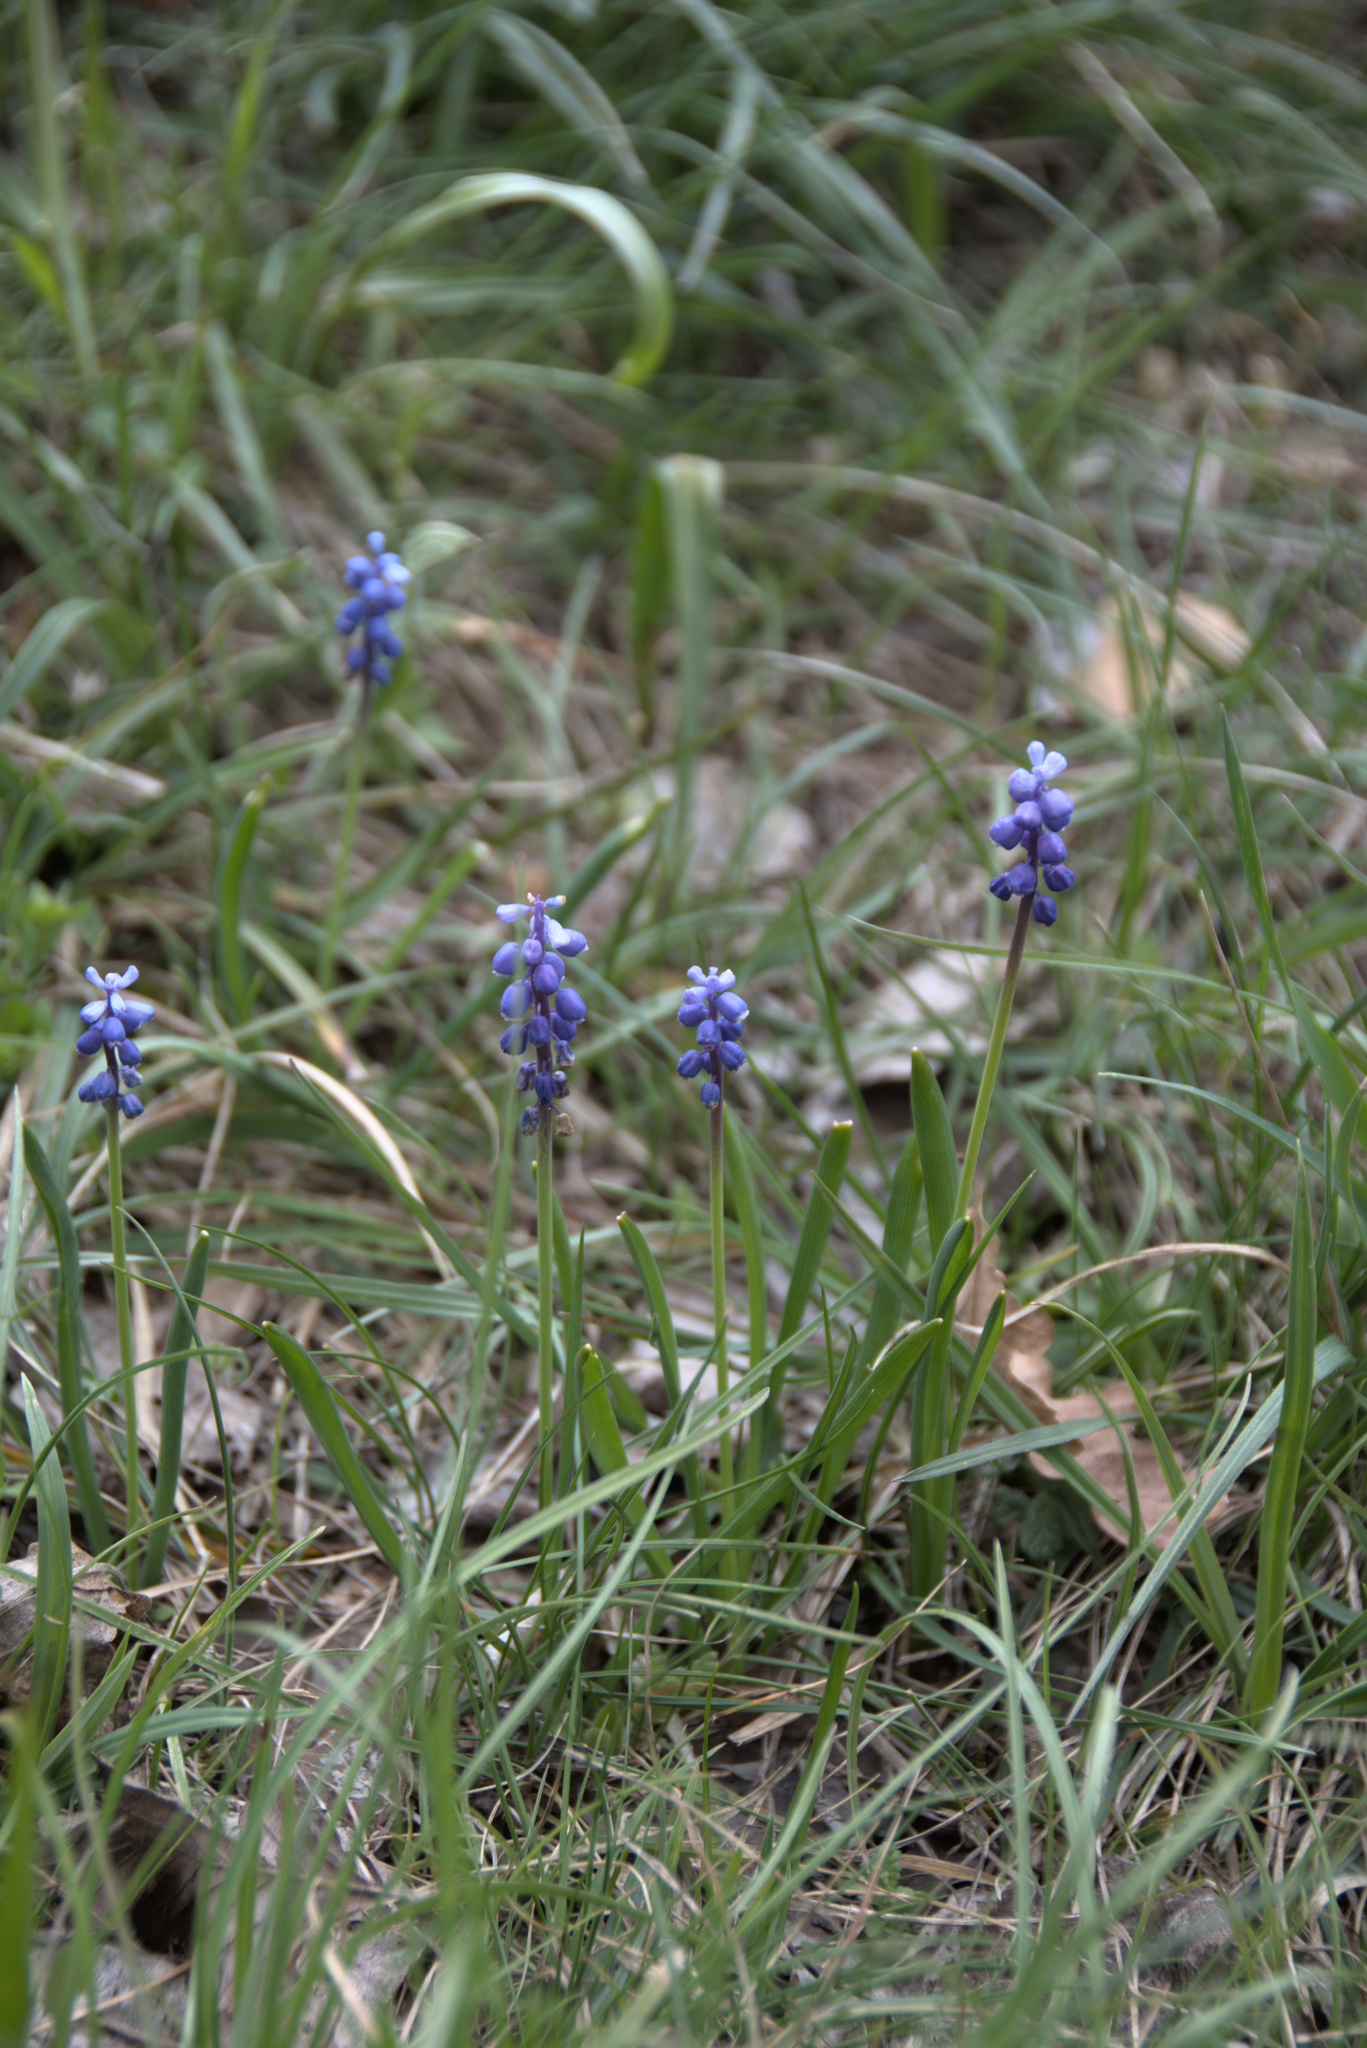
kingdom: Plantae
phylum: Tracheophyta
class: Liliopsida
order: Asparagales
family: Asparagaceae
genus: Muscari
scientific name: Muscari botryoides
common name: Compact grape-hyacinth
